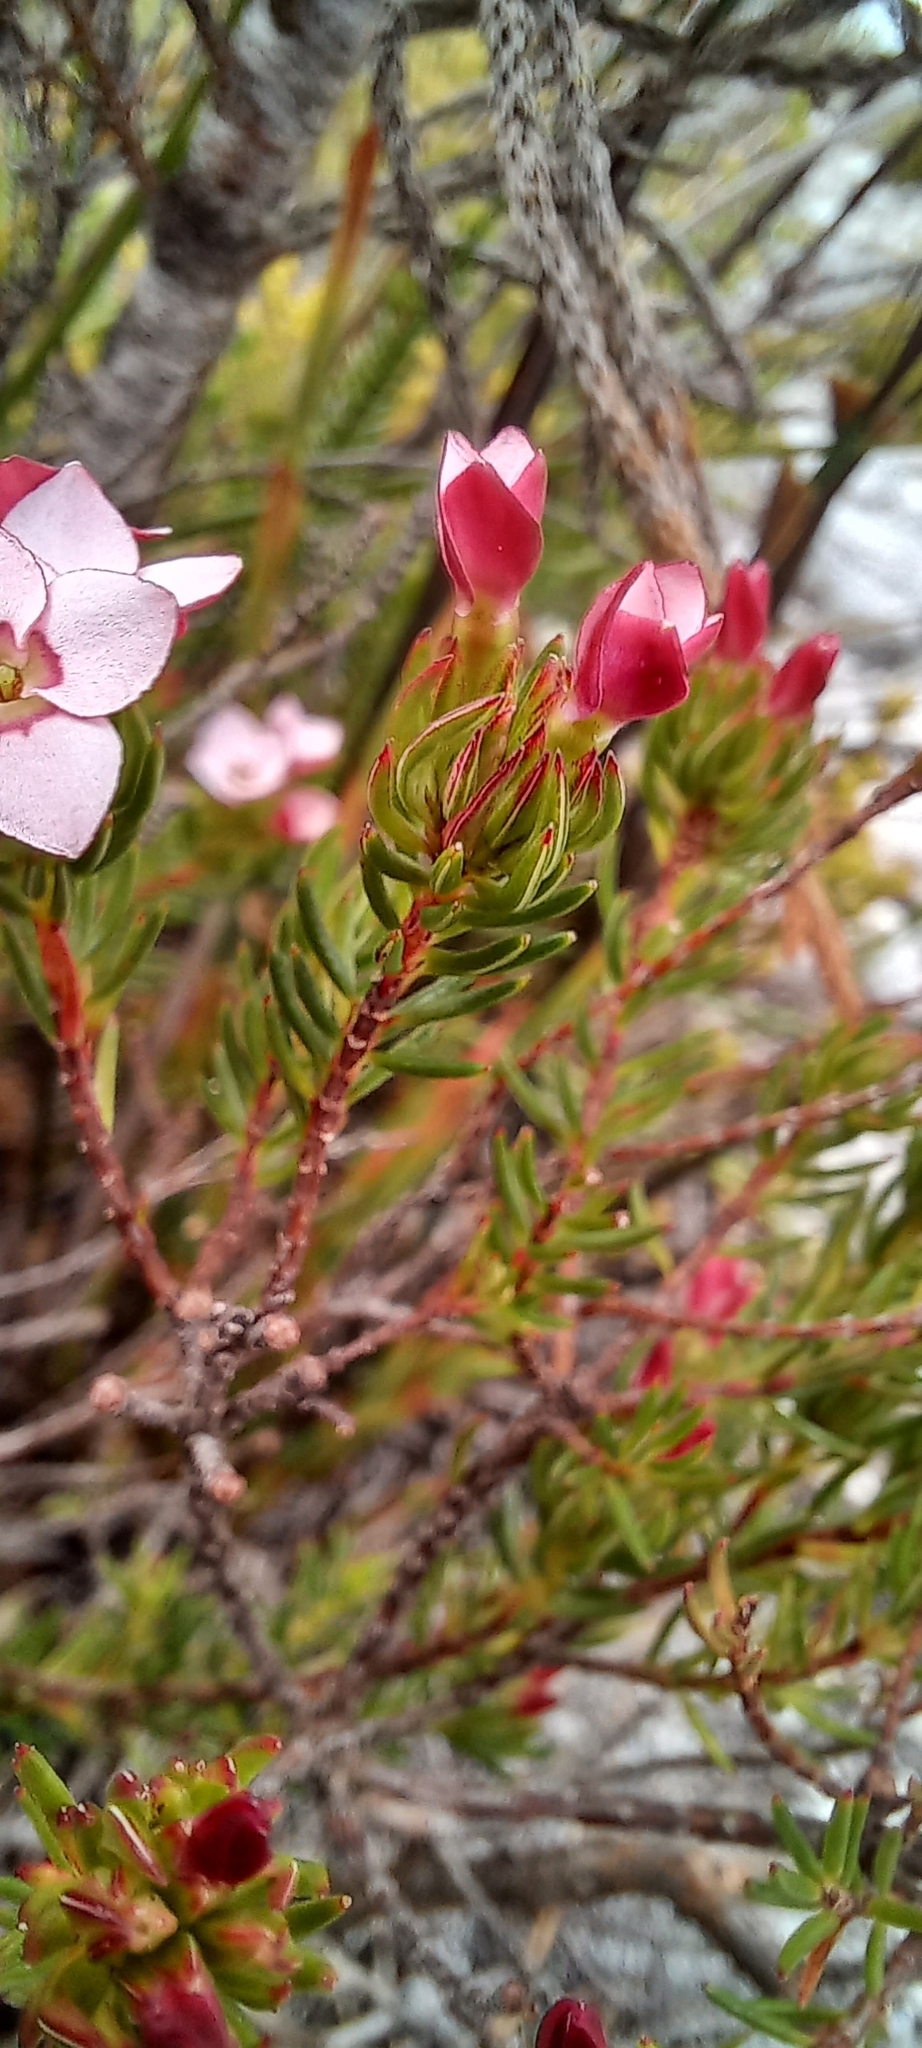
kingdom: Plantae
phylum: Tracheophyta
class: Magnoliopsida
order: Ericales
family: Ericaceae
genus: Erica
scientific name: Erica fastigiata
